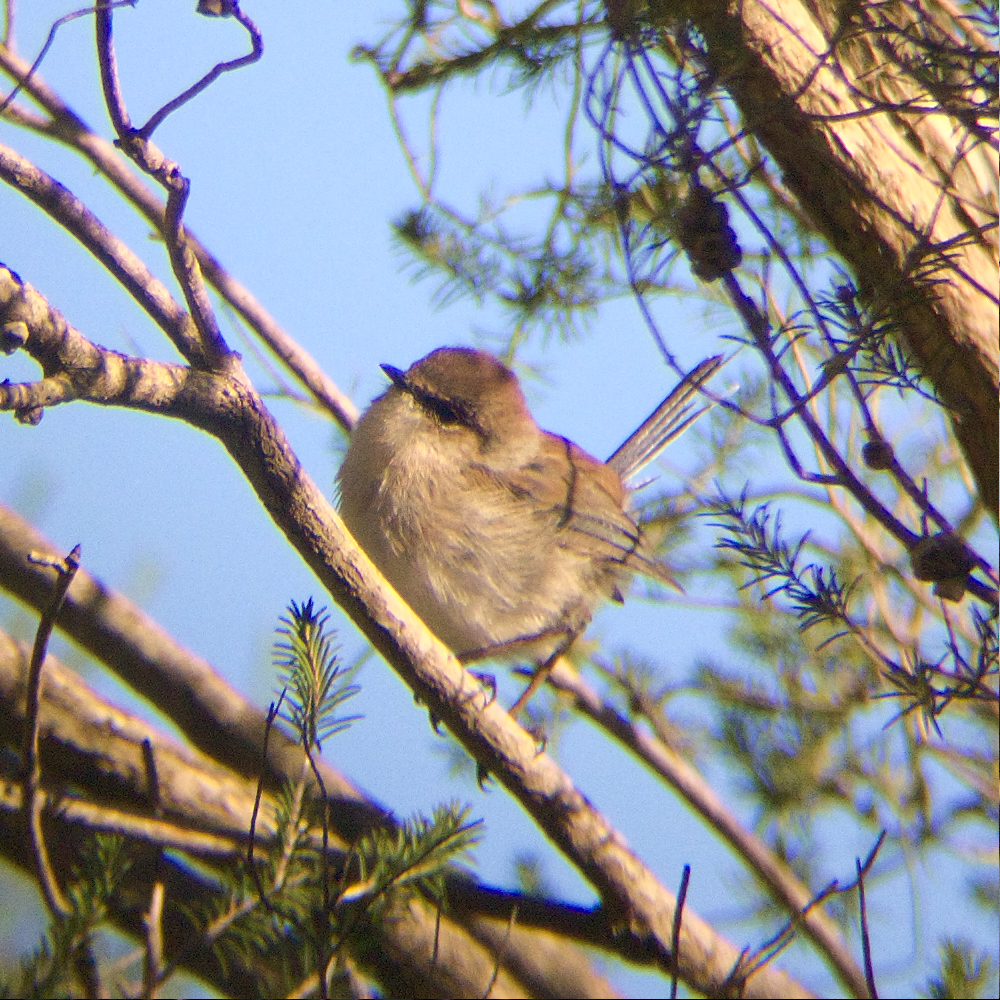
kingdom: Animalia
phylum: Chordata
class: Aves
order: Passeriformes
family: Maluridae
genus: Malurus
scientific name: Malurus cyaneus
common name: Superb fairywren
